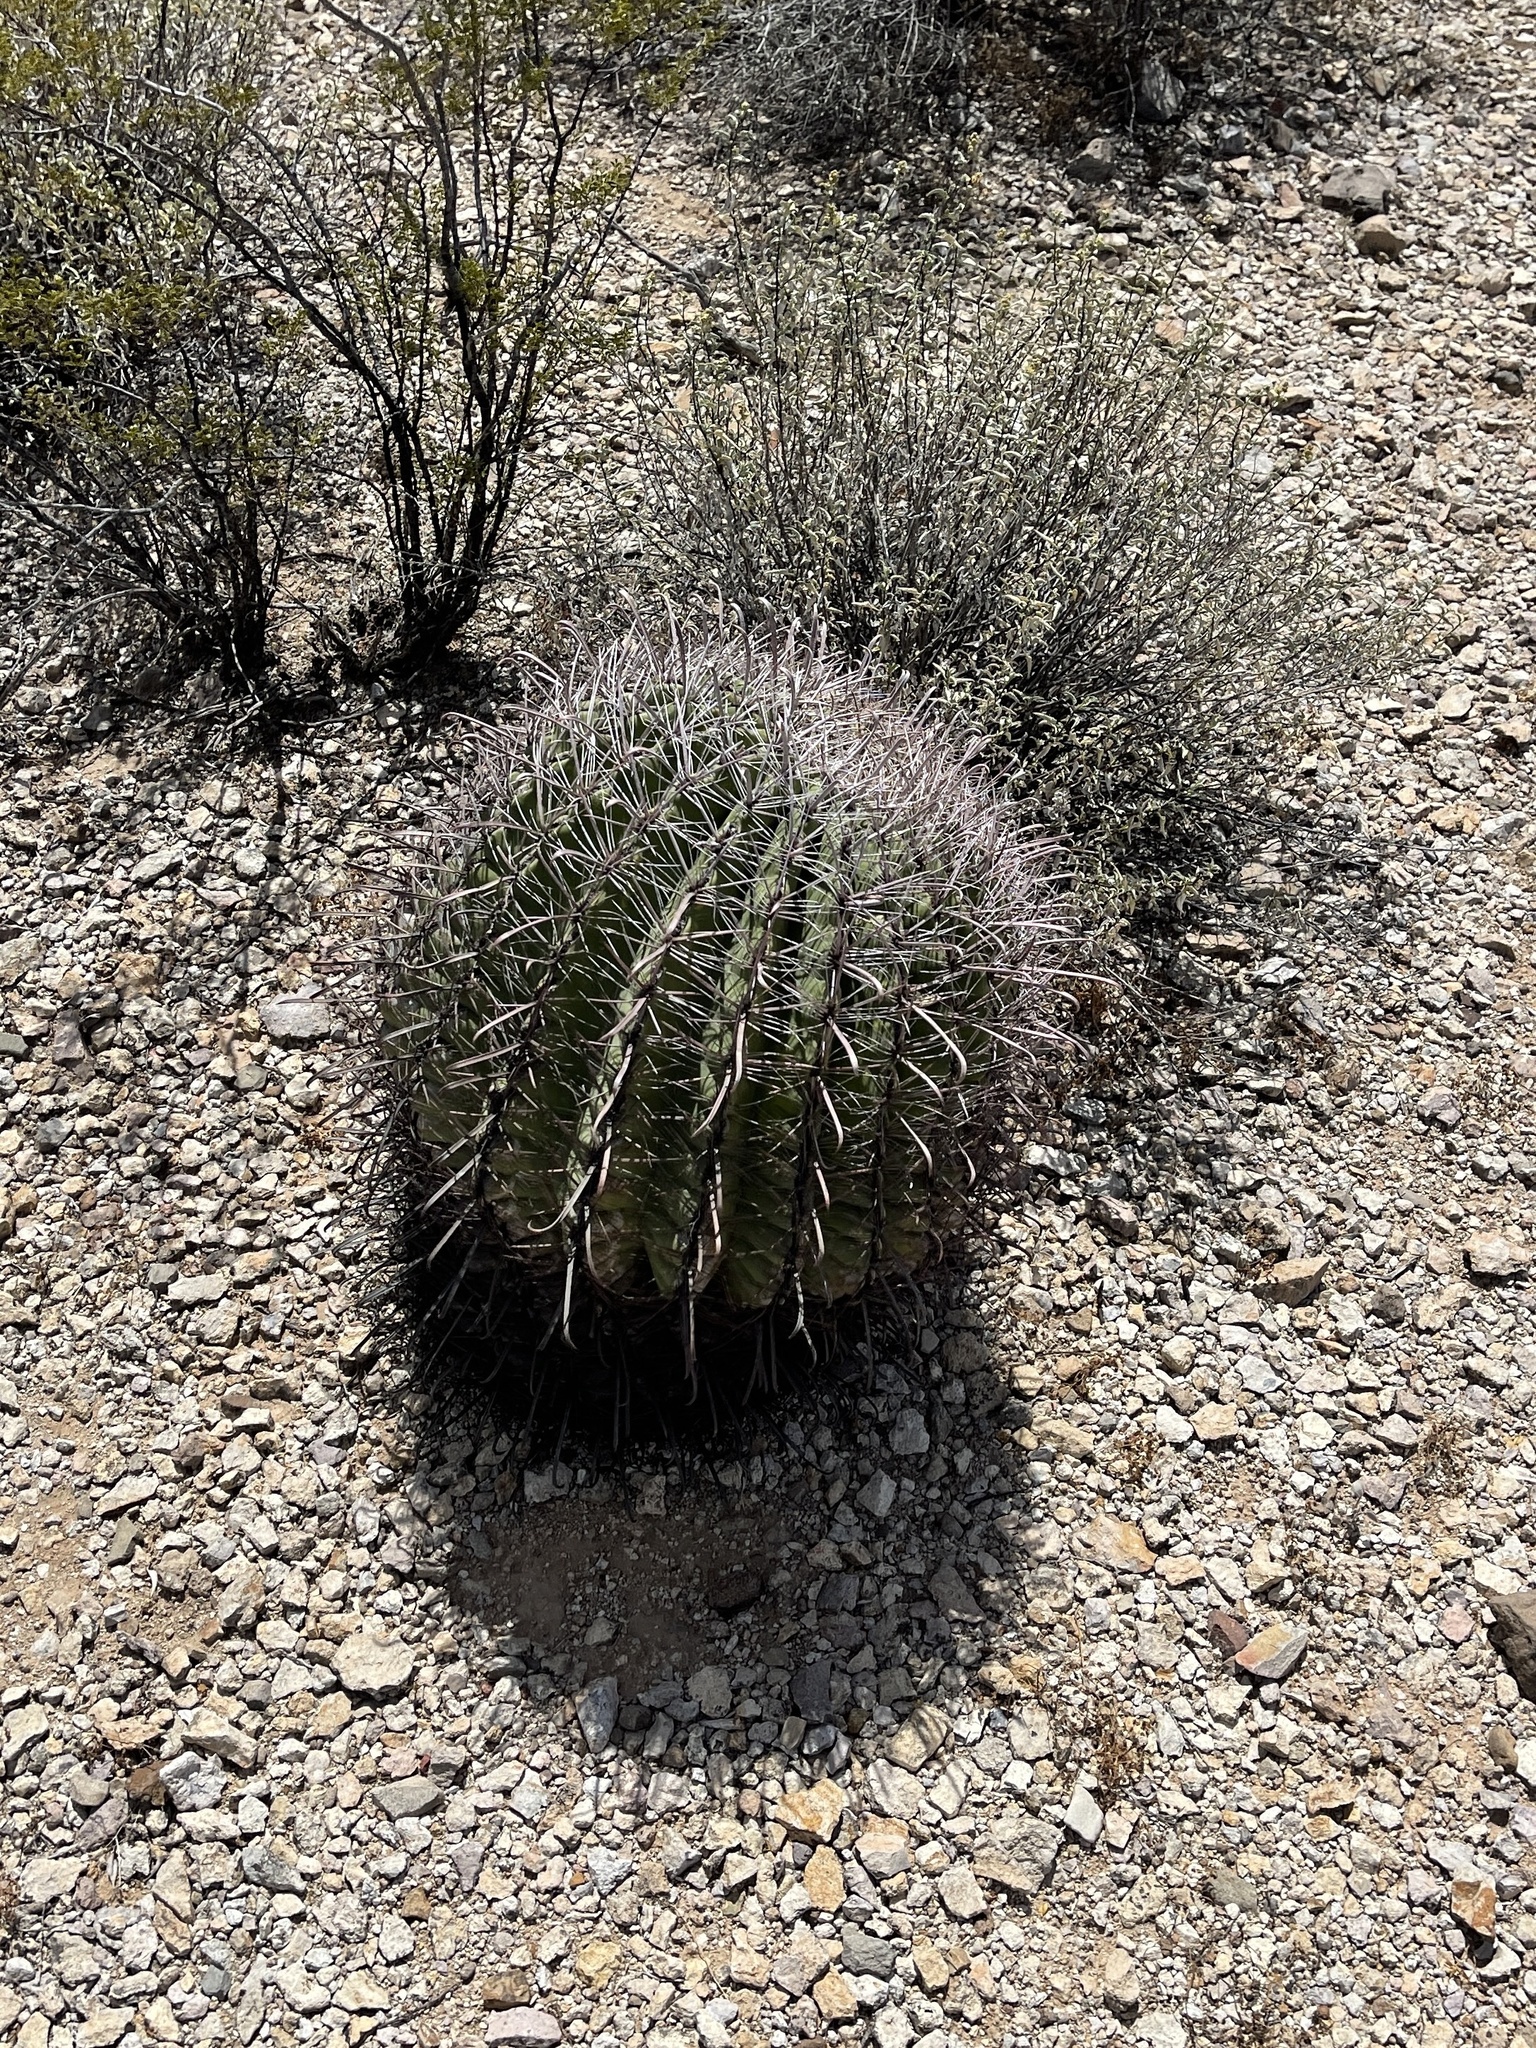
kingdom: Plantae
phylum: Tracheophyta
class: Magnoliopsida
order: Caryophyllales
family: Cactaceae
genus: Ferocactus
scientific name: Ferocactus wislizeni
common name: Candy barrel cactus
